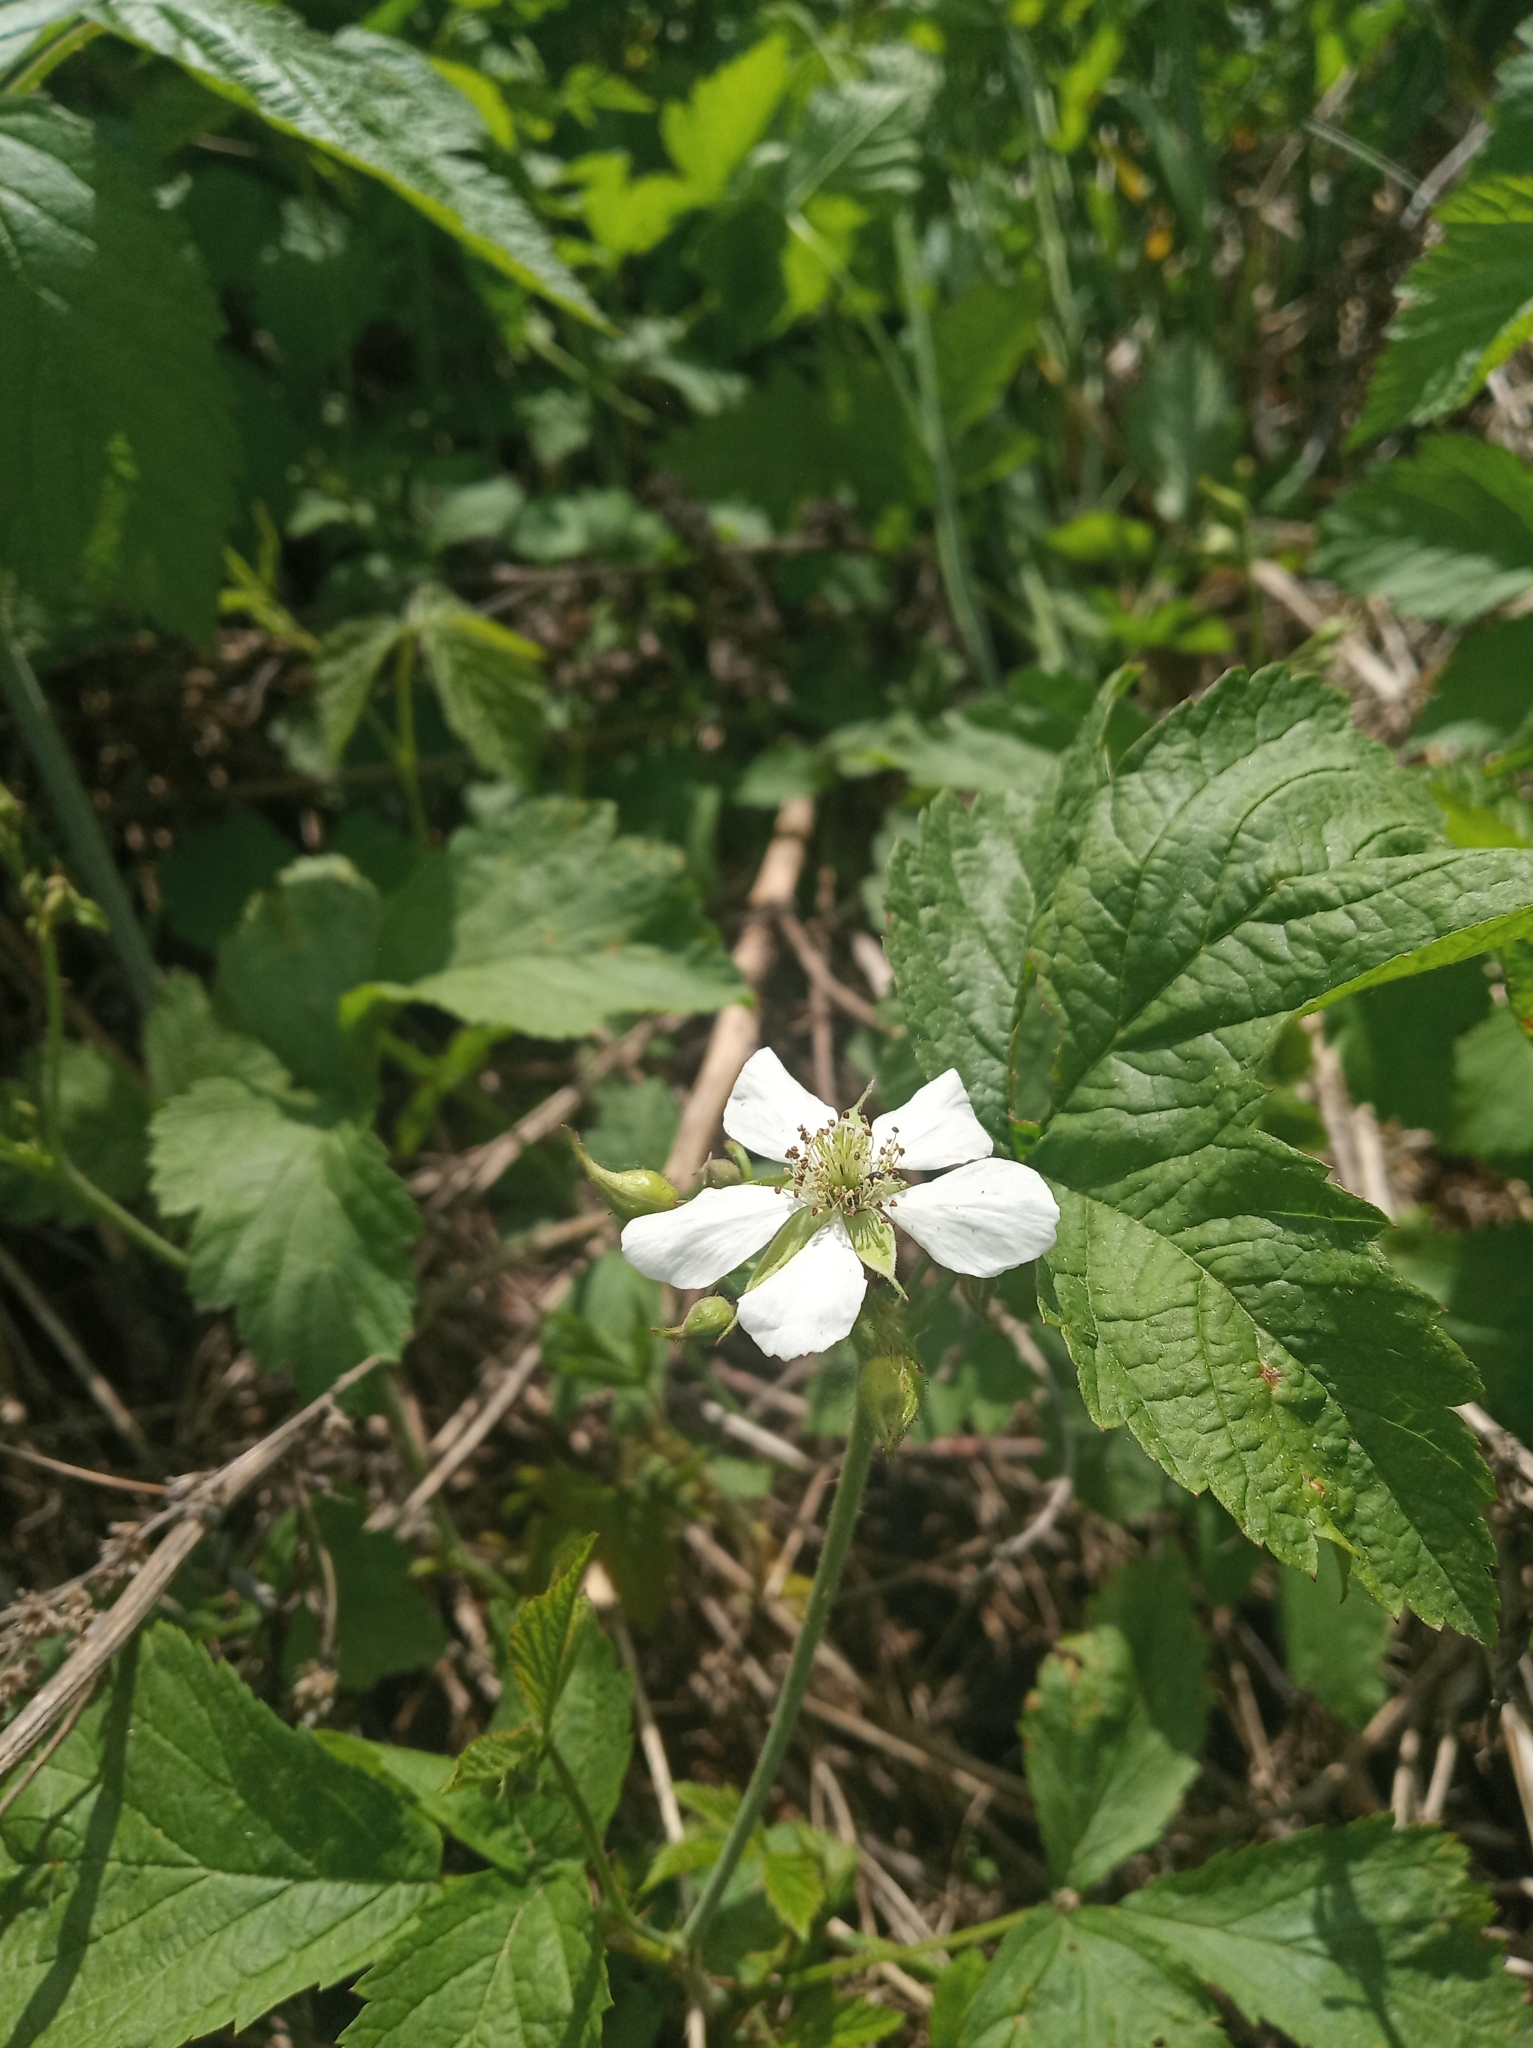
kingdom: Plantae
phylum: Tracheophyta
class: Magnoliopsida
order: Rosales
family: Rosaceae
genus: Rubus
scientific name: Rubus caesius
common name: Dewberry
